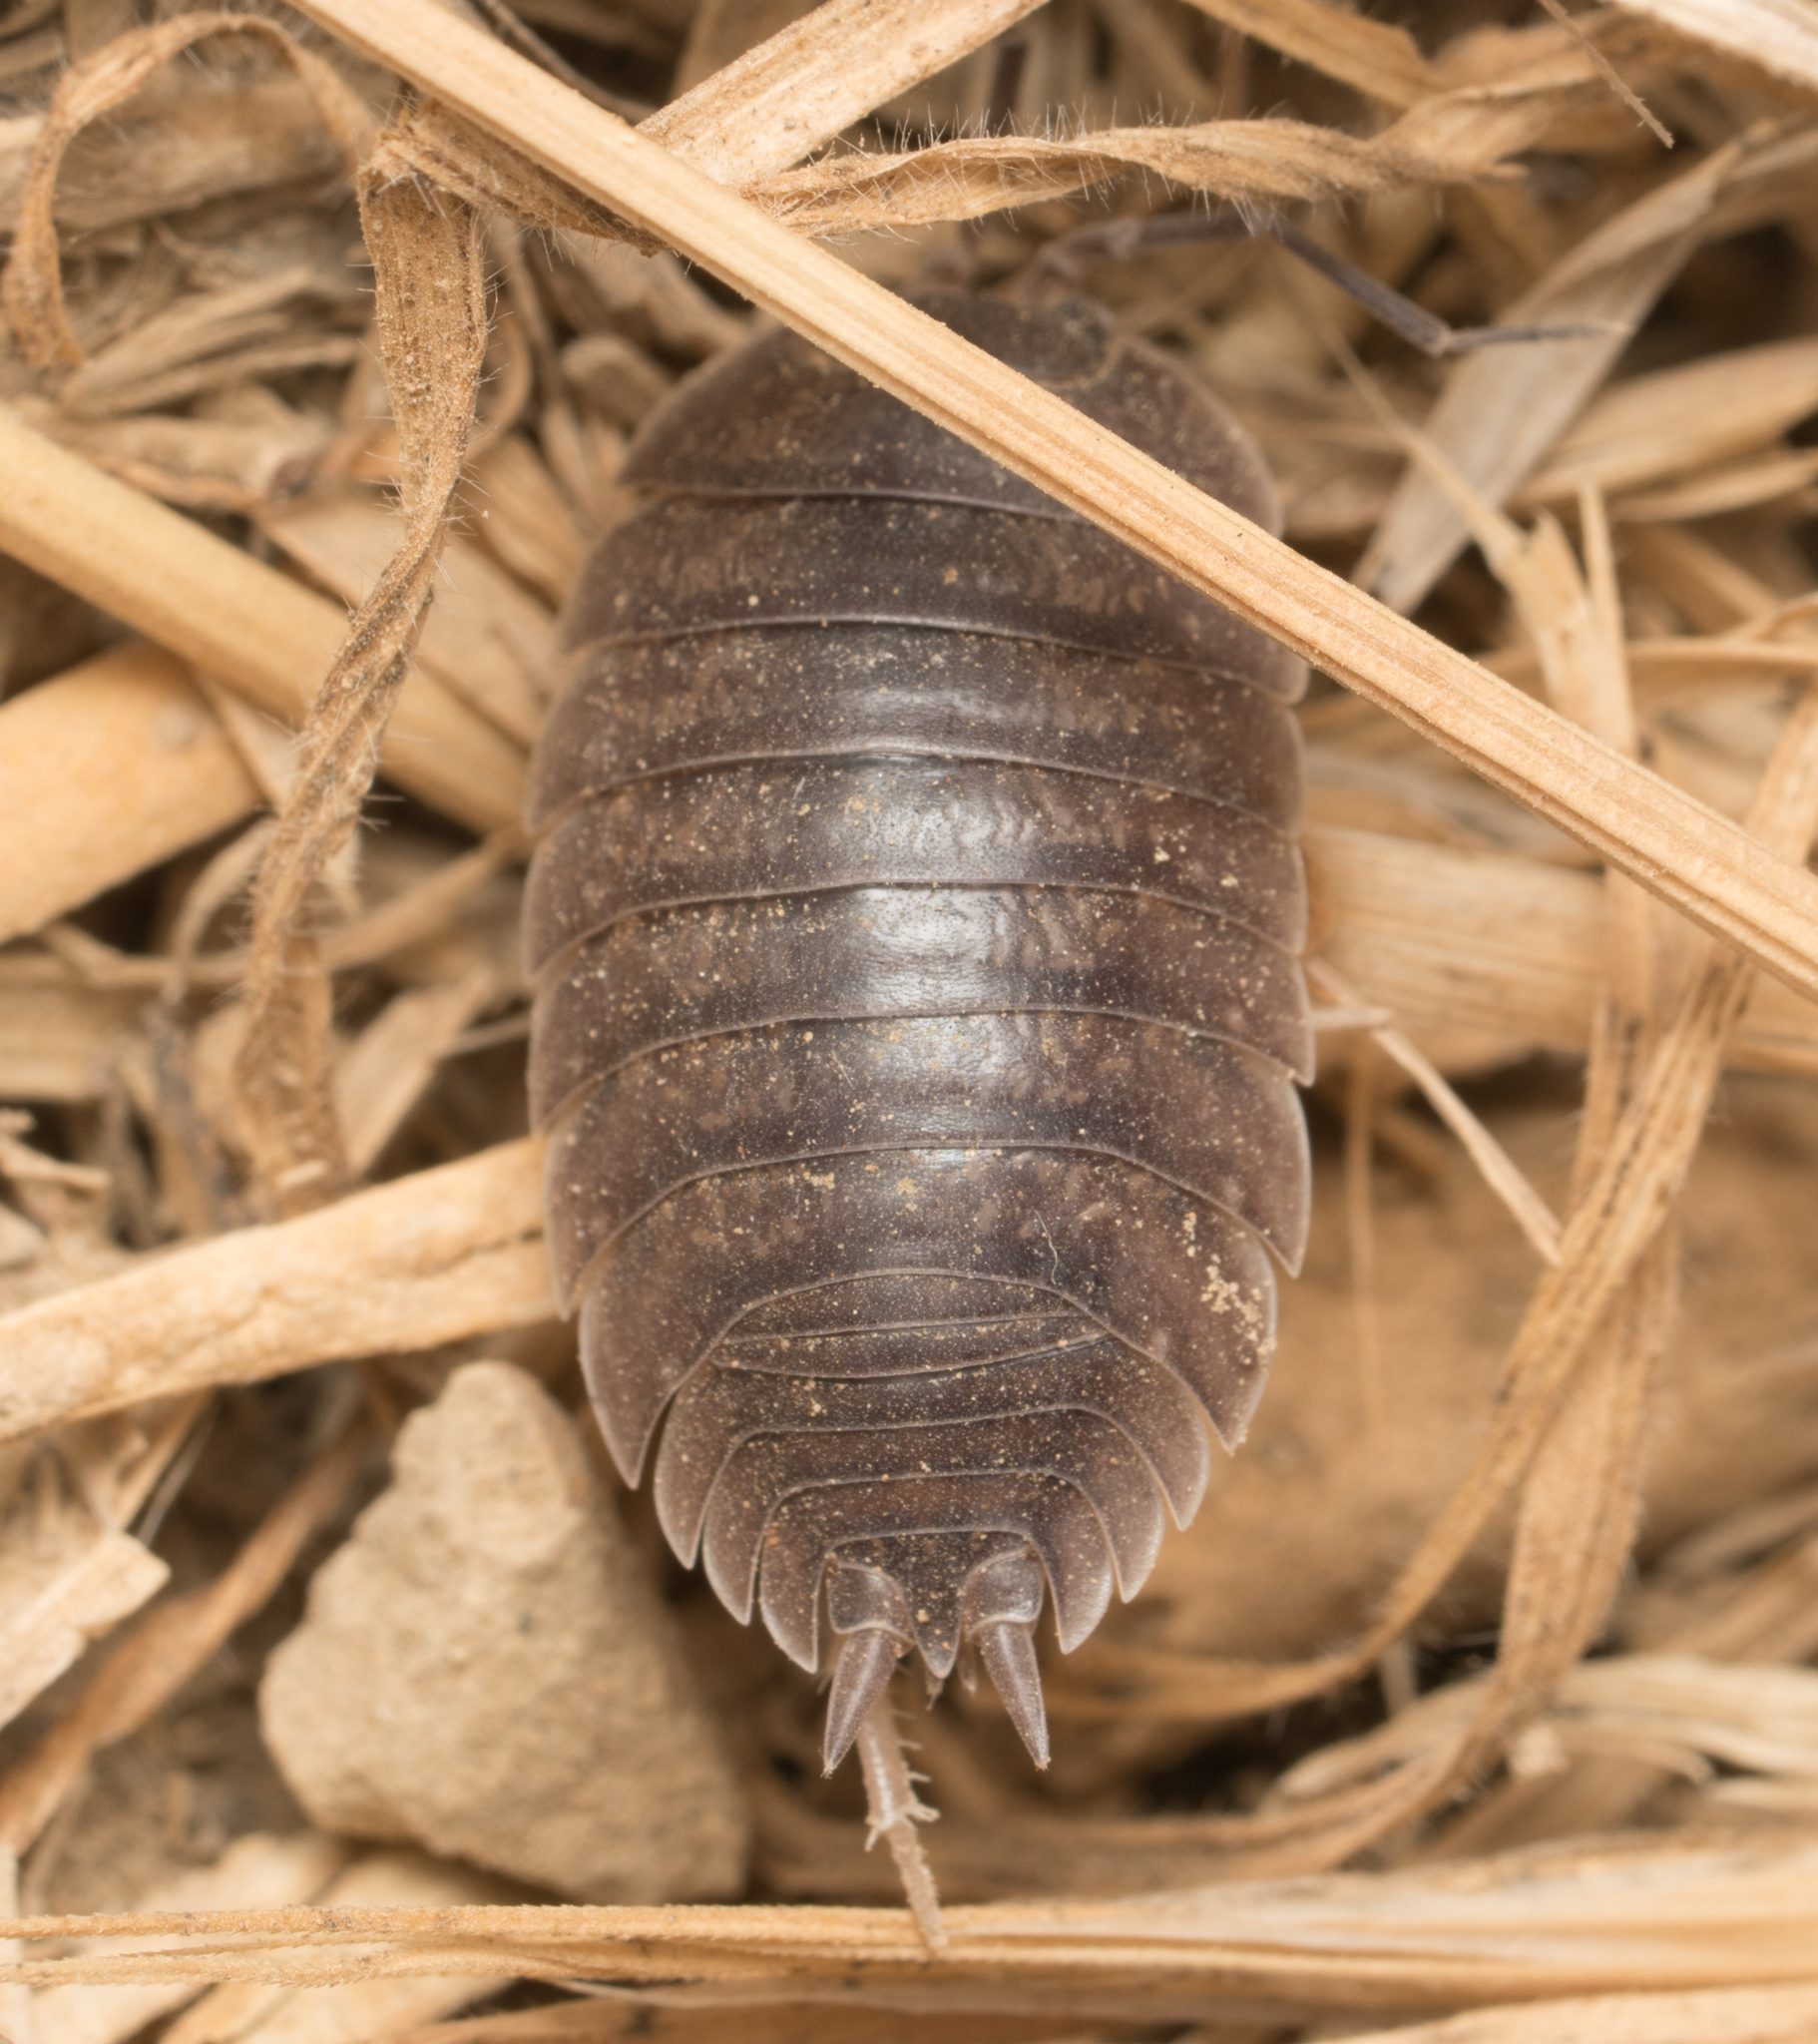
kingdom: Animalia
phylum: Arthropoda
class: Malacostraca
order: Isopoda
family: Porcellionidae
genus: Porcellio
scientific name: Porcellio laevis
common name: Swift woodlouse
